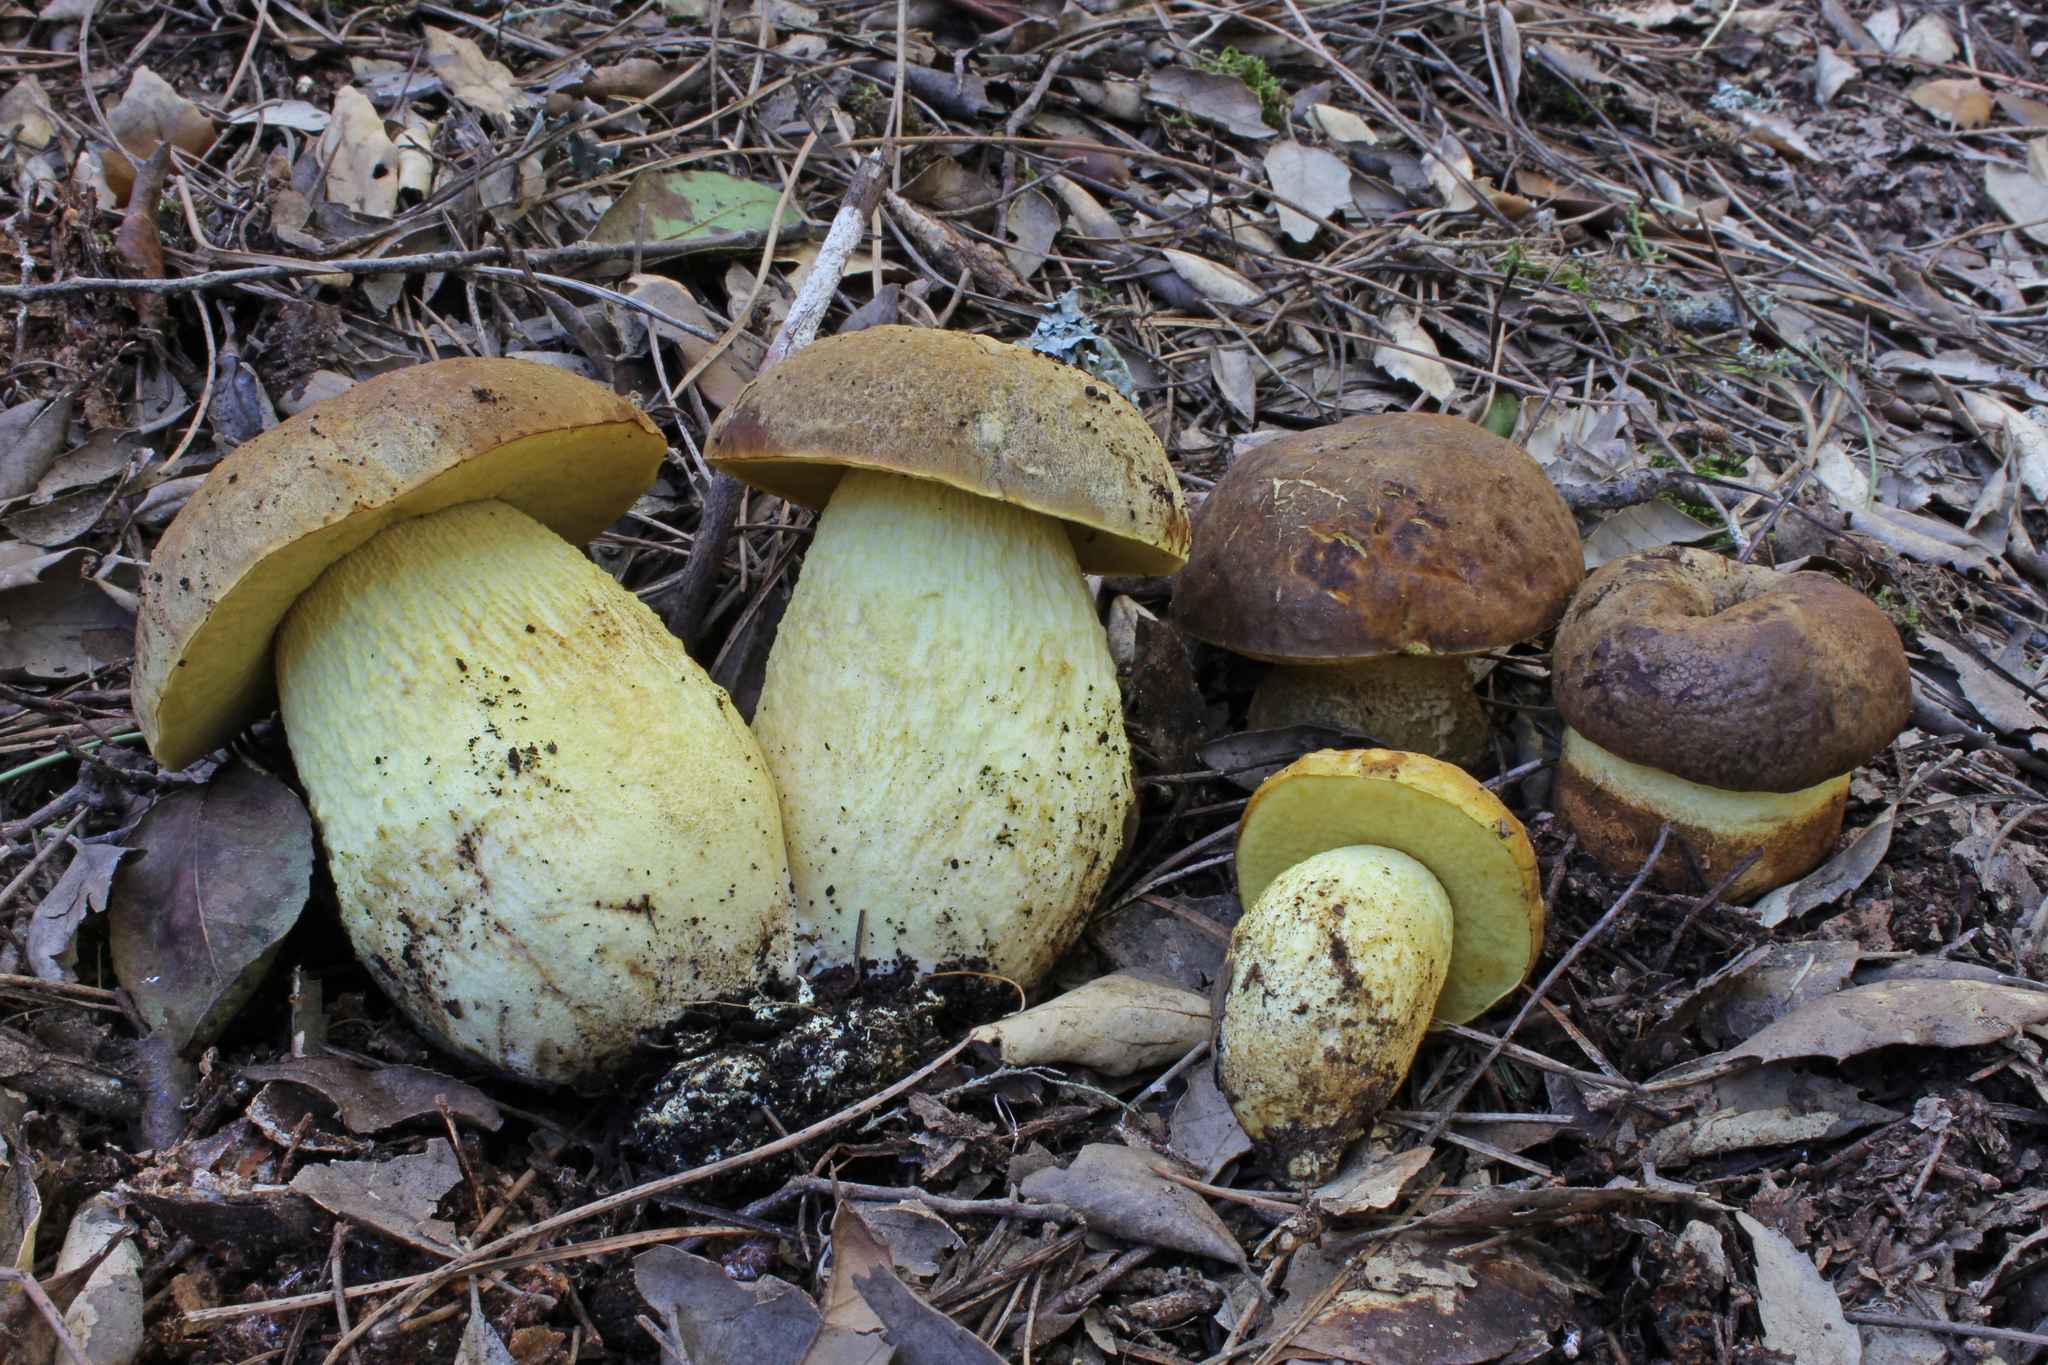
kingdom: Fungi
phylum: Basidiomycota
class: Agaricomycetes
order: Boletales
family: Boletaceae
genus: Leccinellum
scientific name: Leccinellum lepidum
